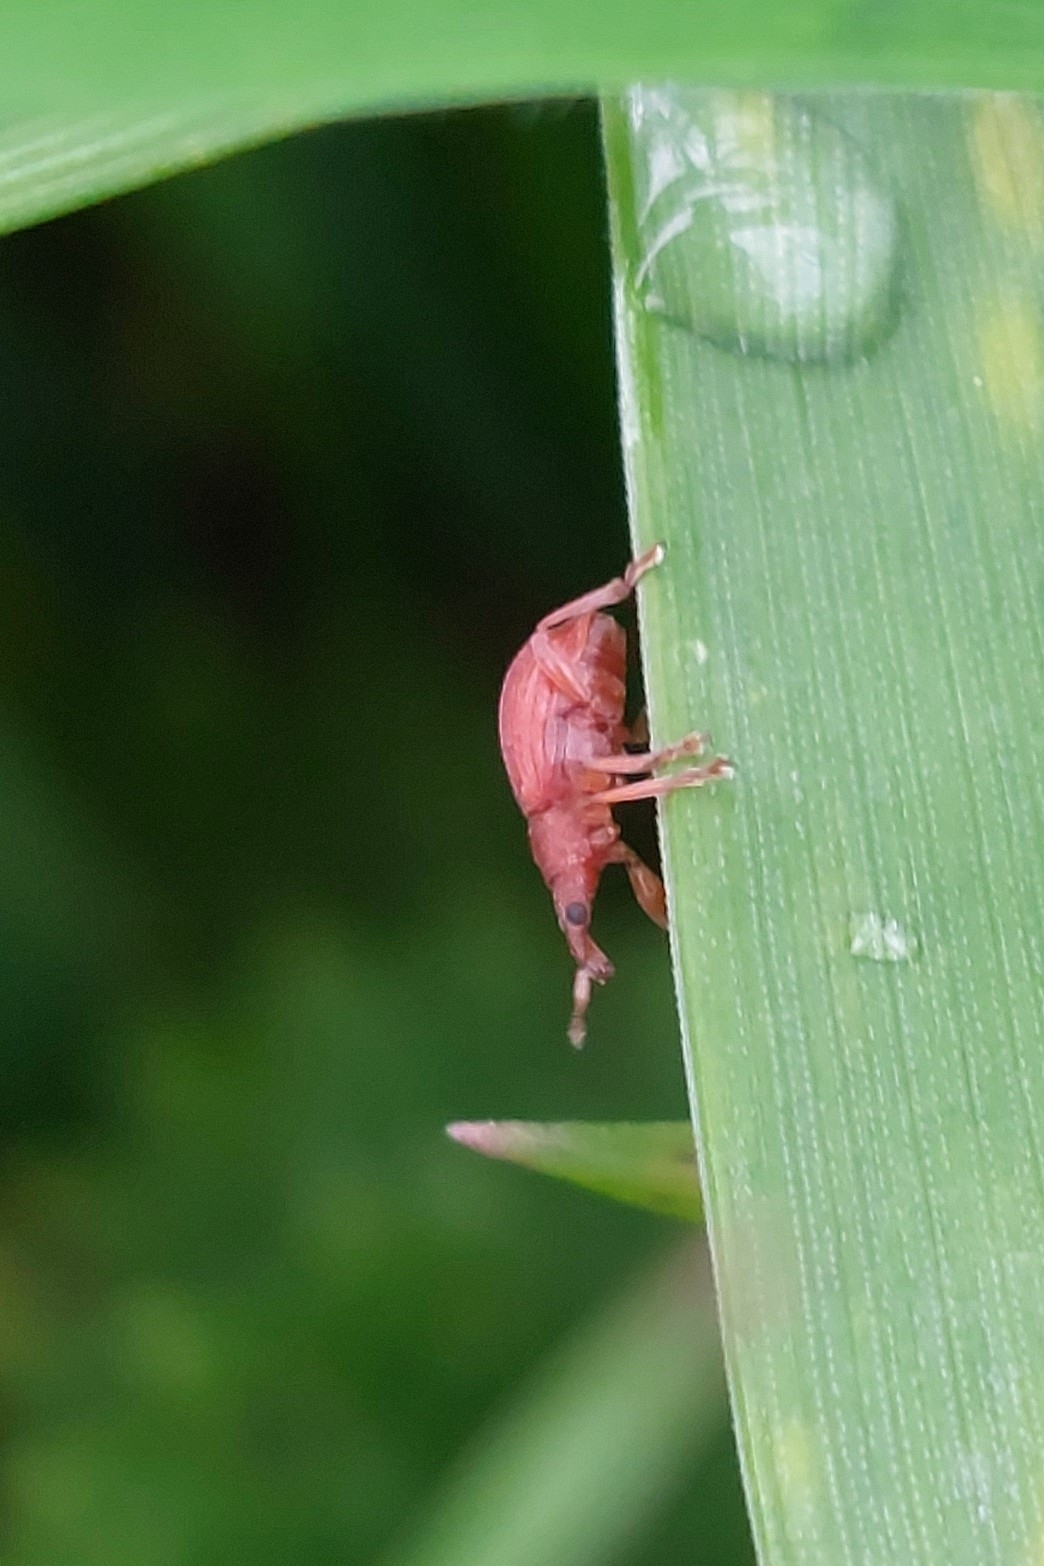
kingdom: Animalia
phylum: Arthropoda
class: Insecta
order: Coleoptera
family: Apionidae
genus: Apion
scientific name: Apion frumentarium
